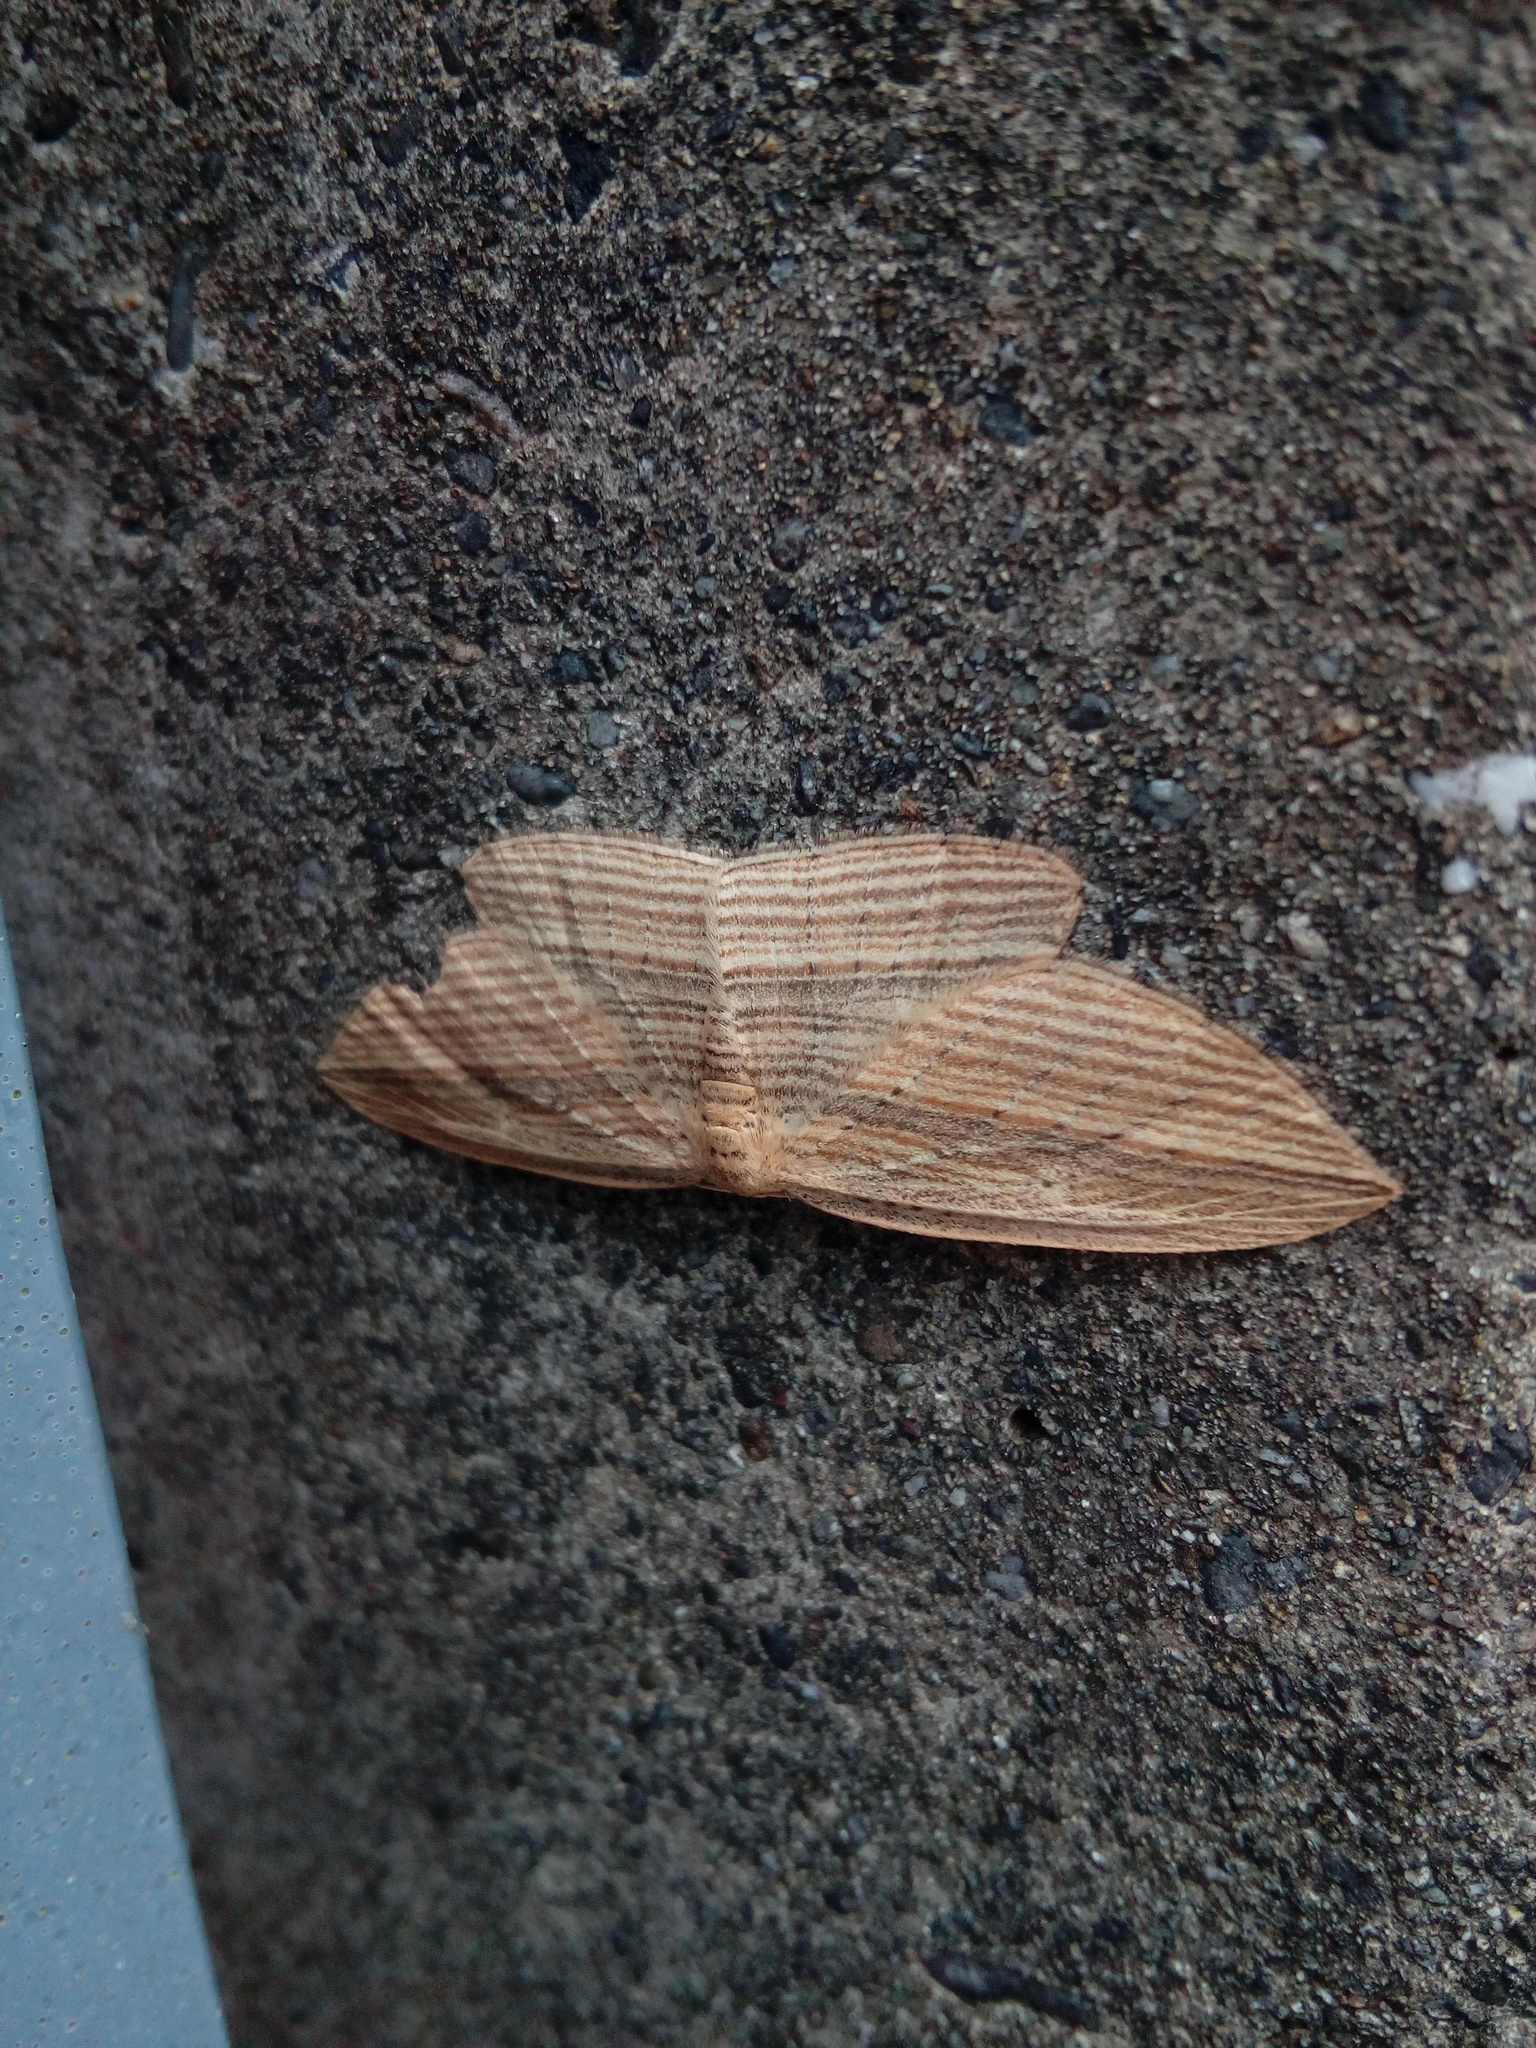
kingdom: Animalia
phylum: Arthropoda
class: Insecta
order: Lepidoptera
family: Geometridae
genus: Epiphryne
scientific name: Epiphryne verriculata
